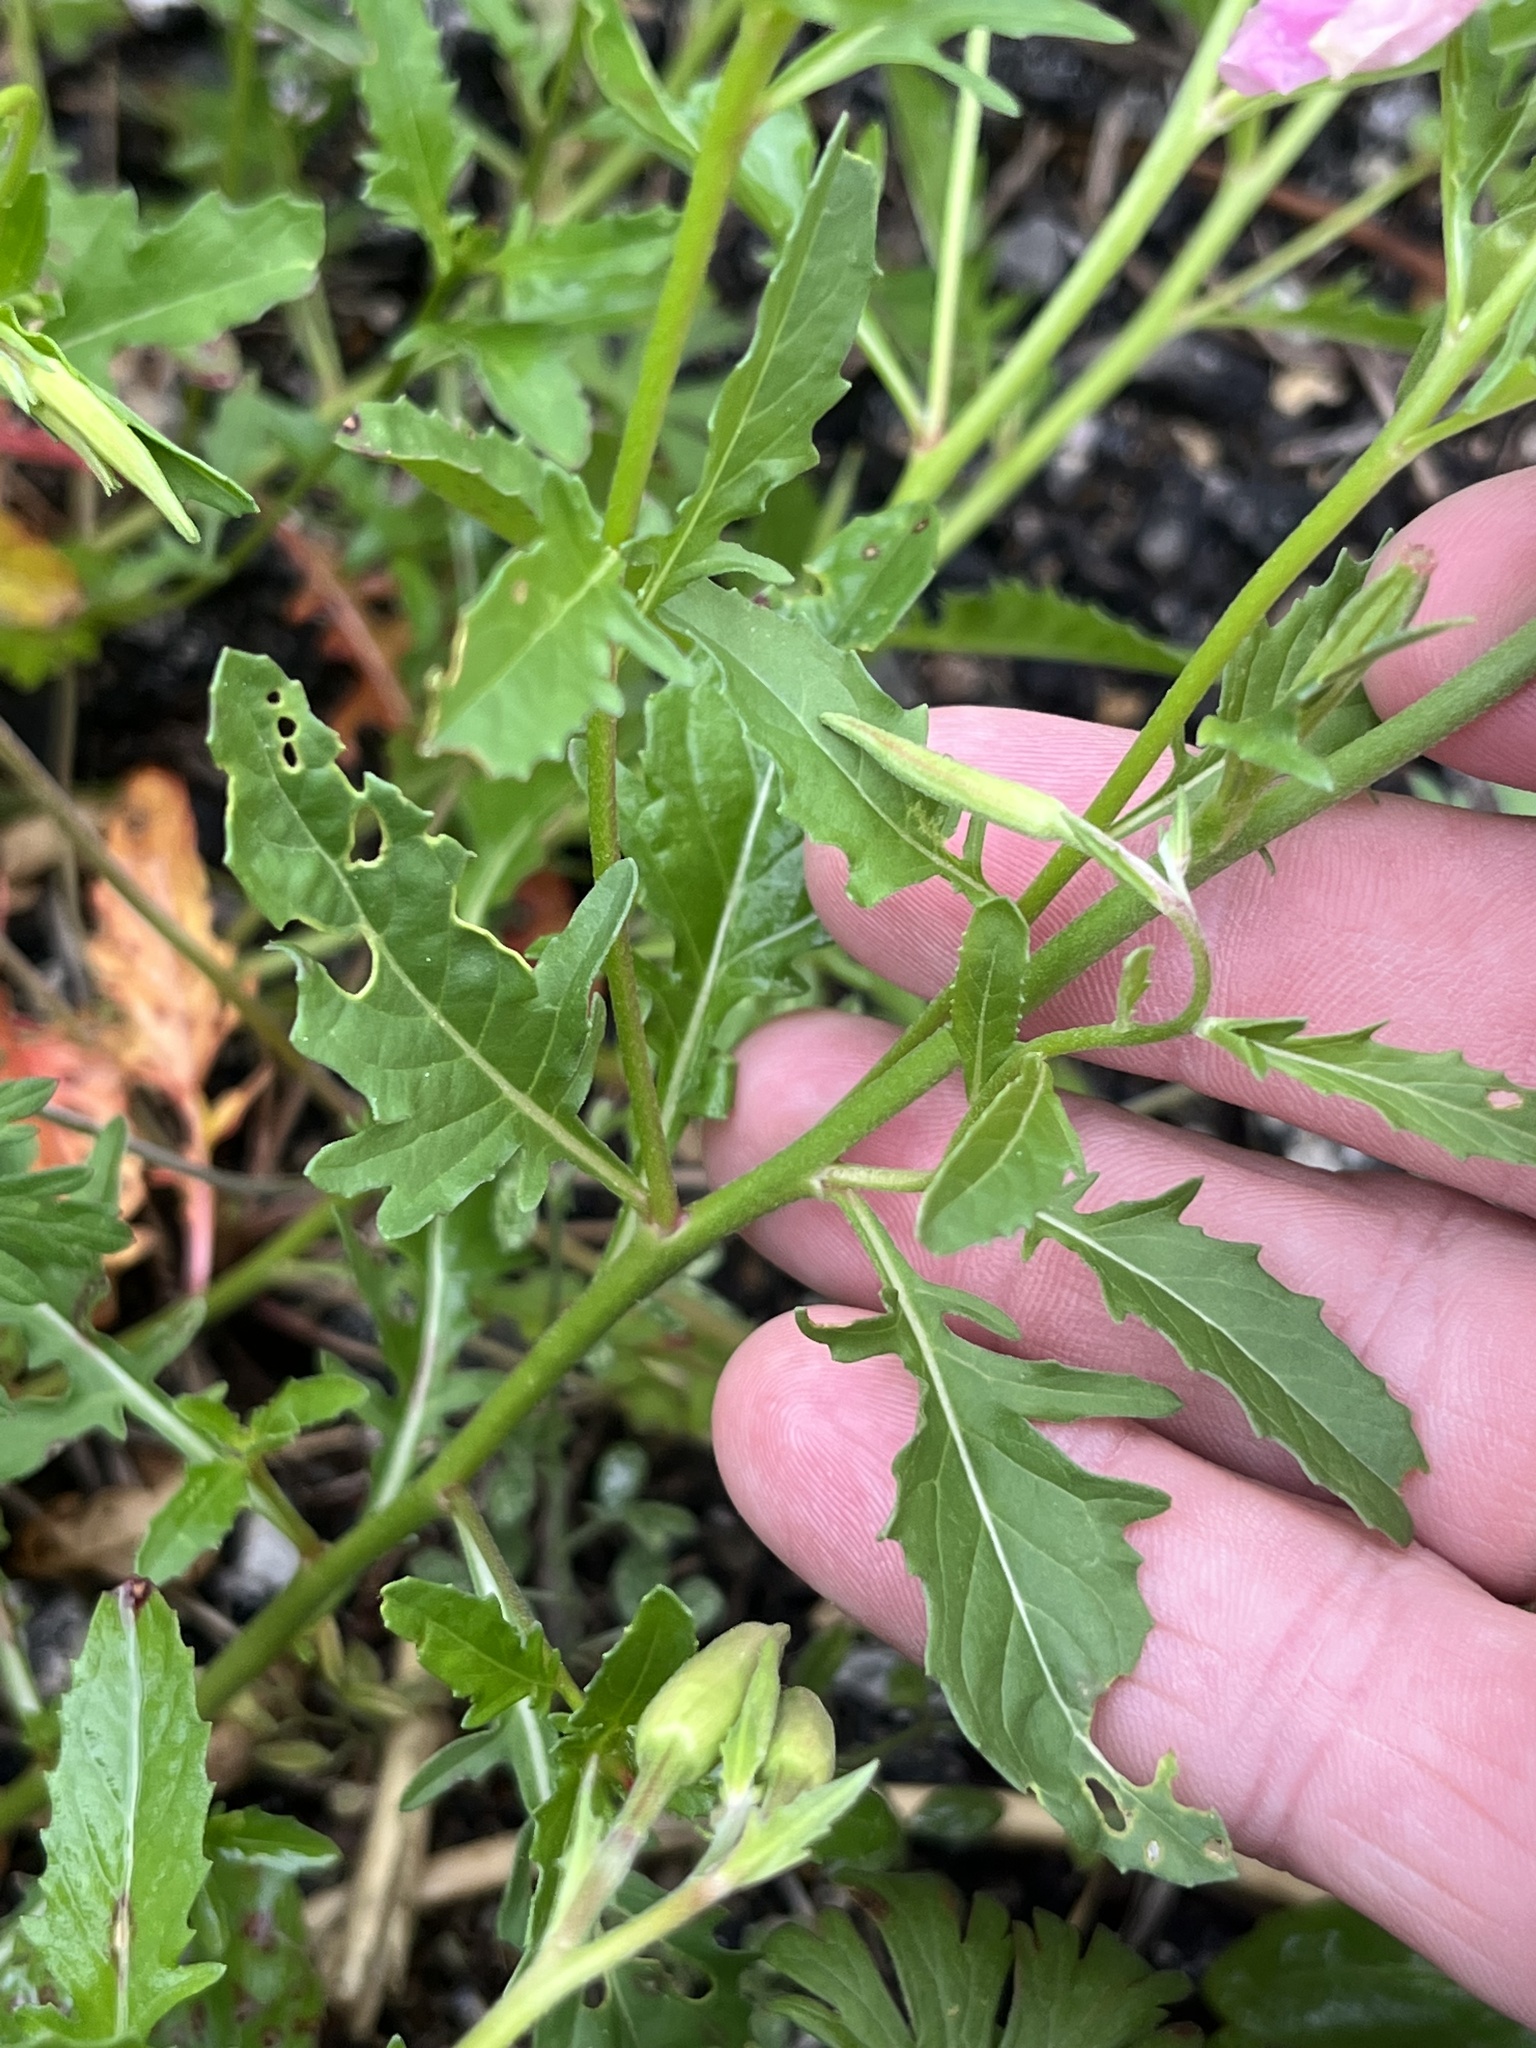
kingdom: Plantae
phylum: Tracheophyta
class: Magnoliopsida
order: Myrtales
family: Onagraceae
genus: Oenothera
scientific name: Oenothera speciosa
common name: White evening-primrose
